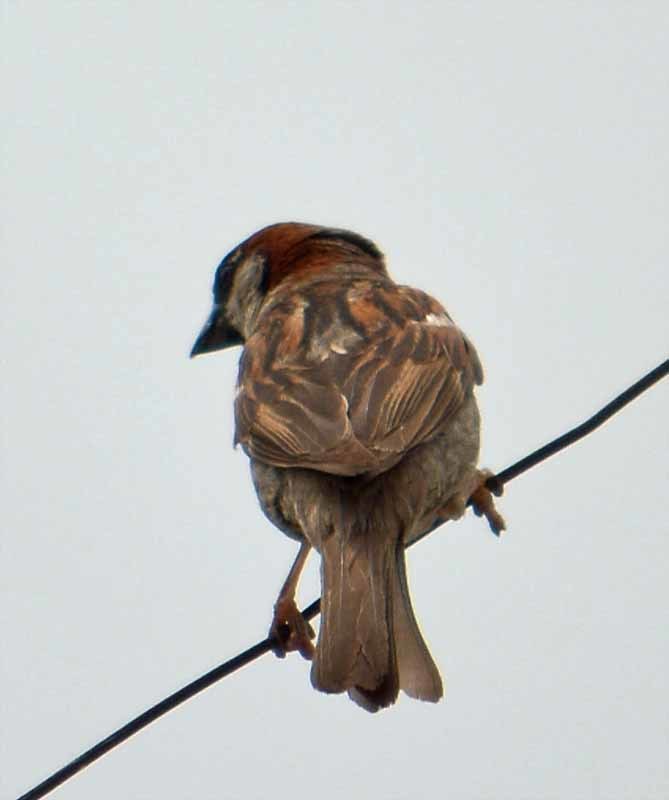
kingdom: Animalia
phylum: Chordata
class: Aves
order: Passeriformes
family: Passeridae
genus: Passer
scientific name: Passer domesticus
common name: House sparrow
